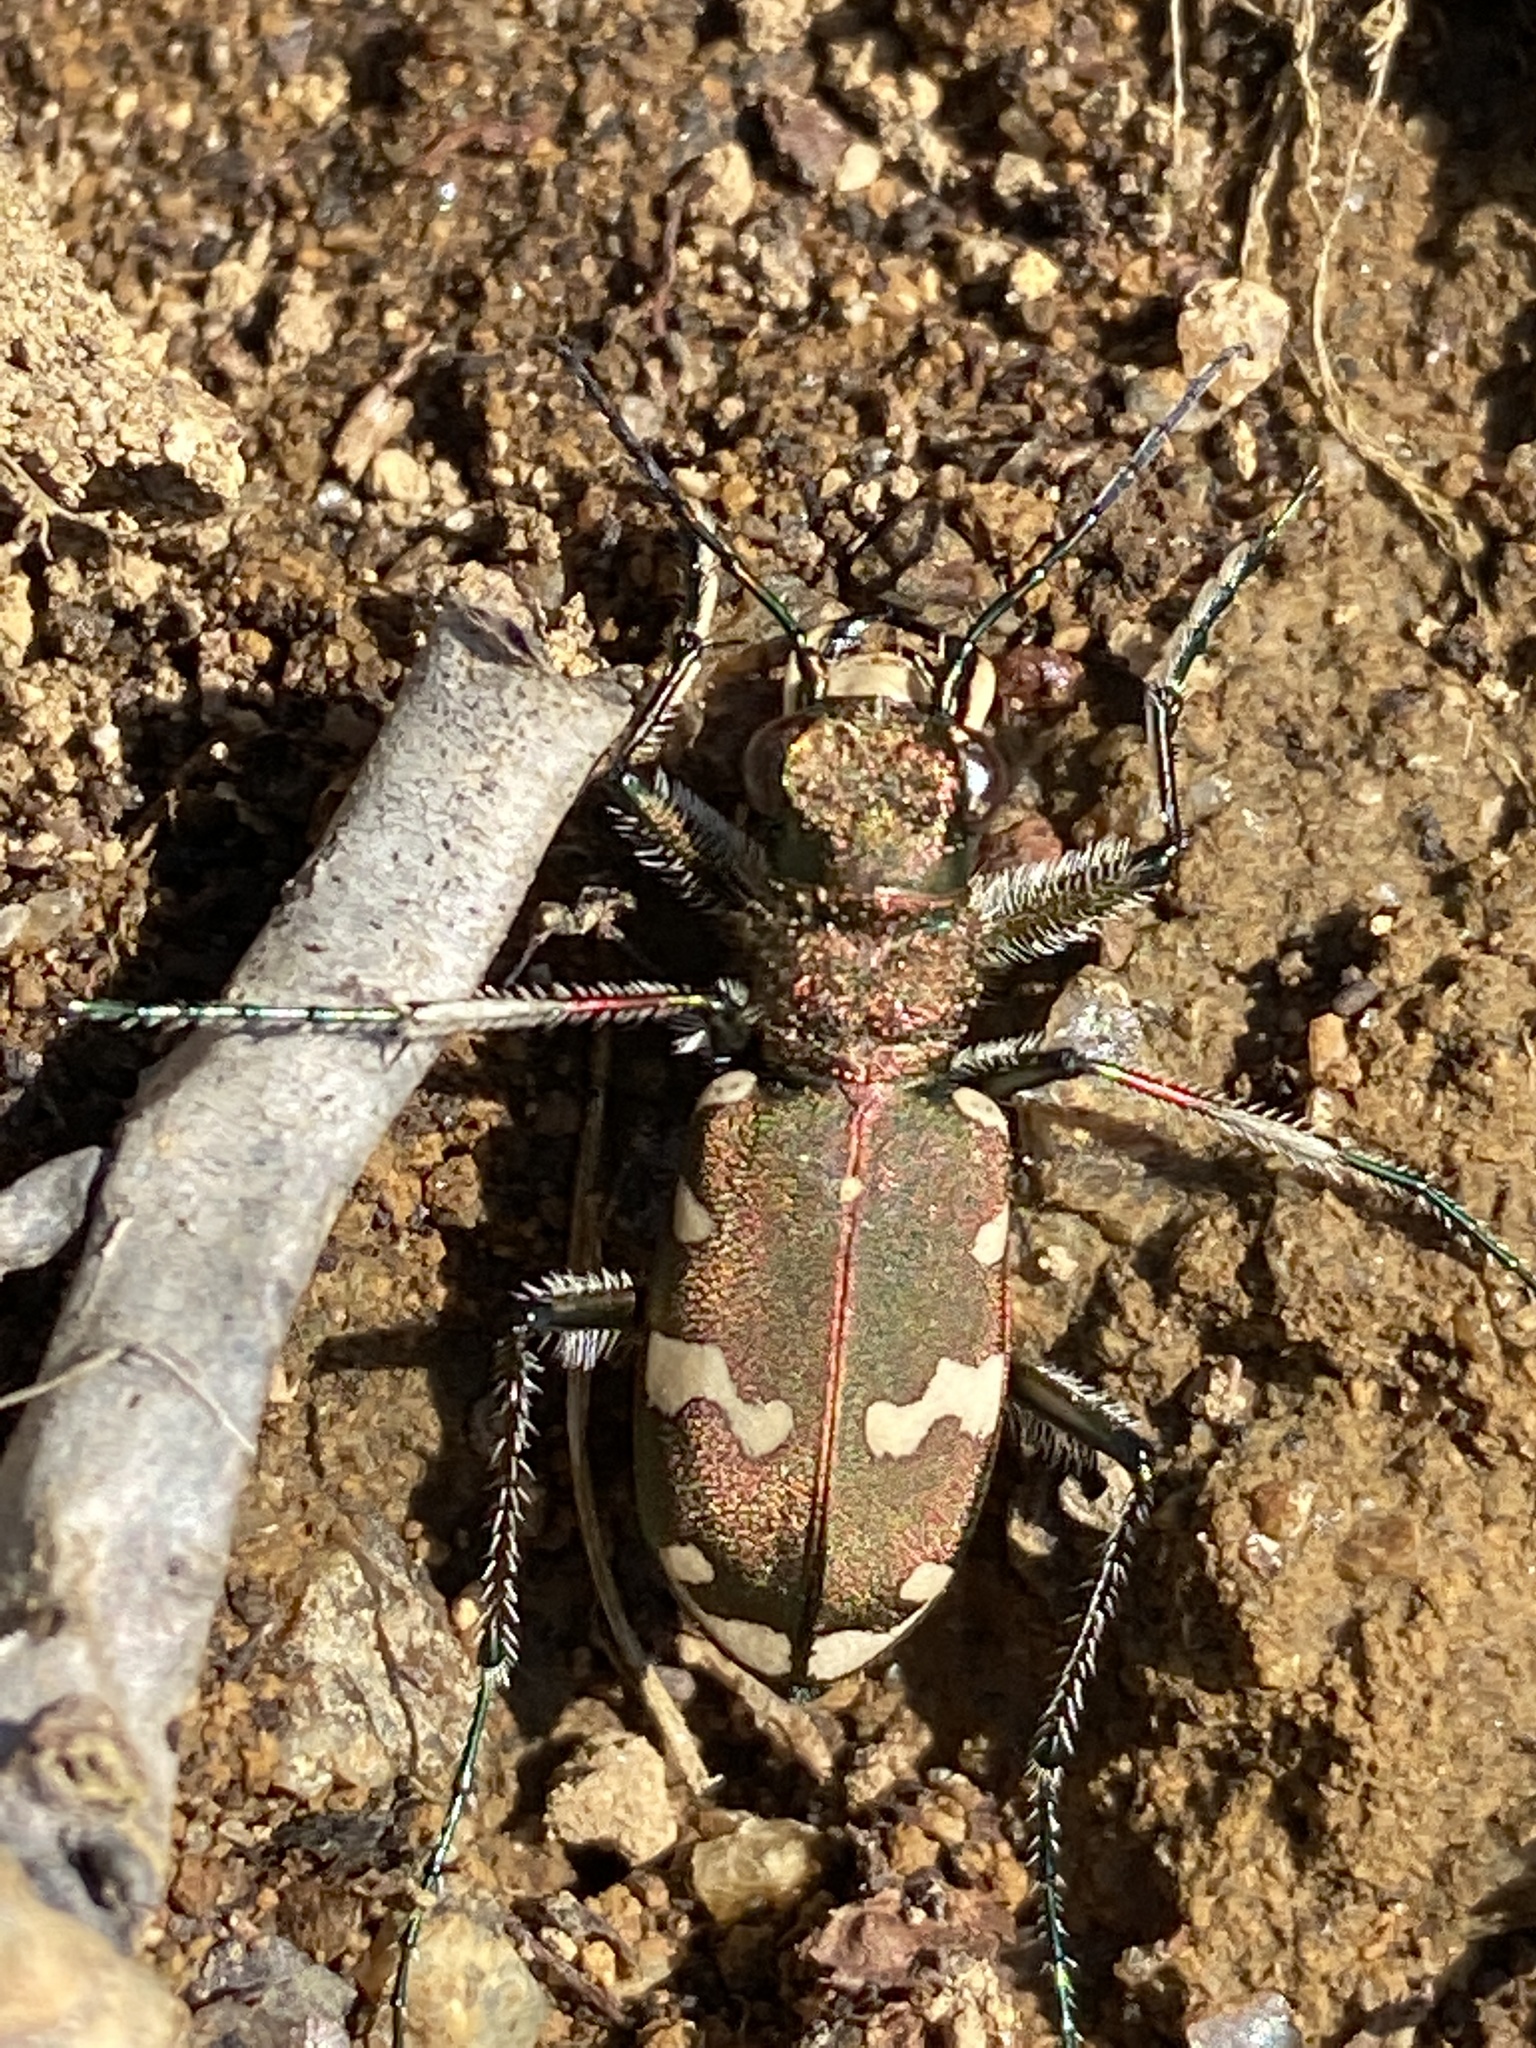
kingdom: Animalia
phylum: Arthropoda
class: Insecta
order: Coleoptera
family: Carabidae
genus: Cicindela
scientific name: Cicindela sylvicola
